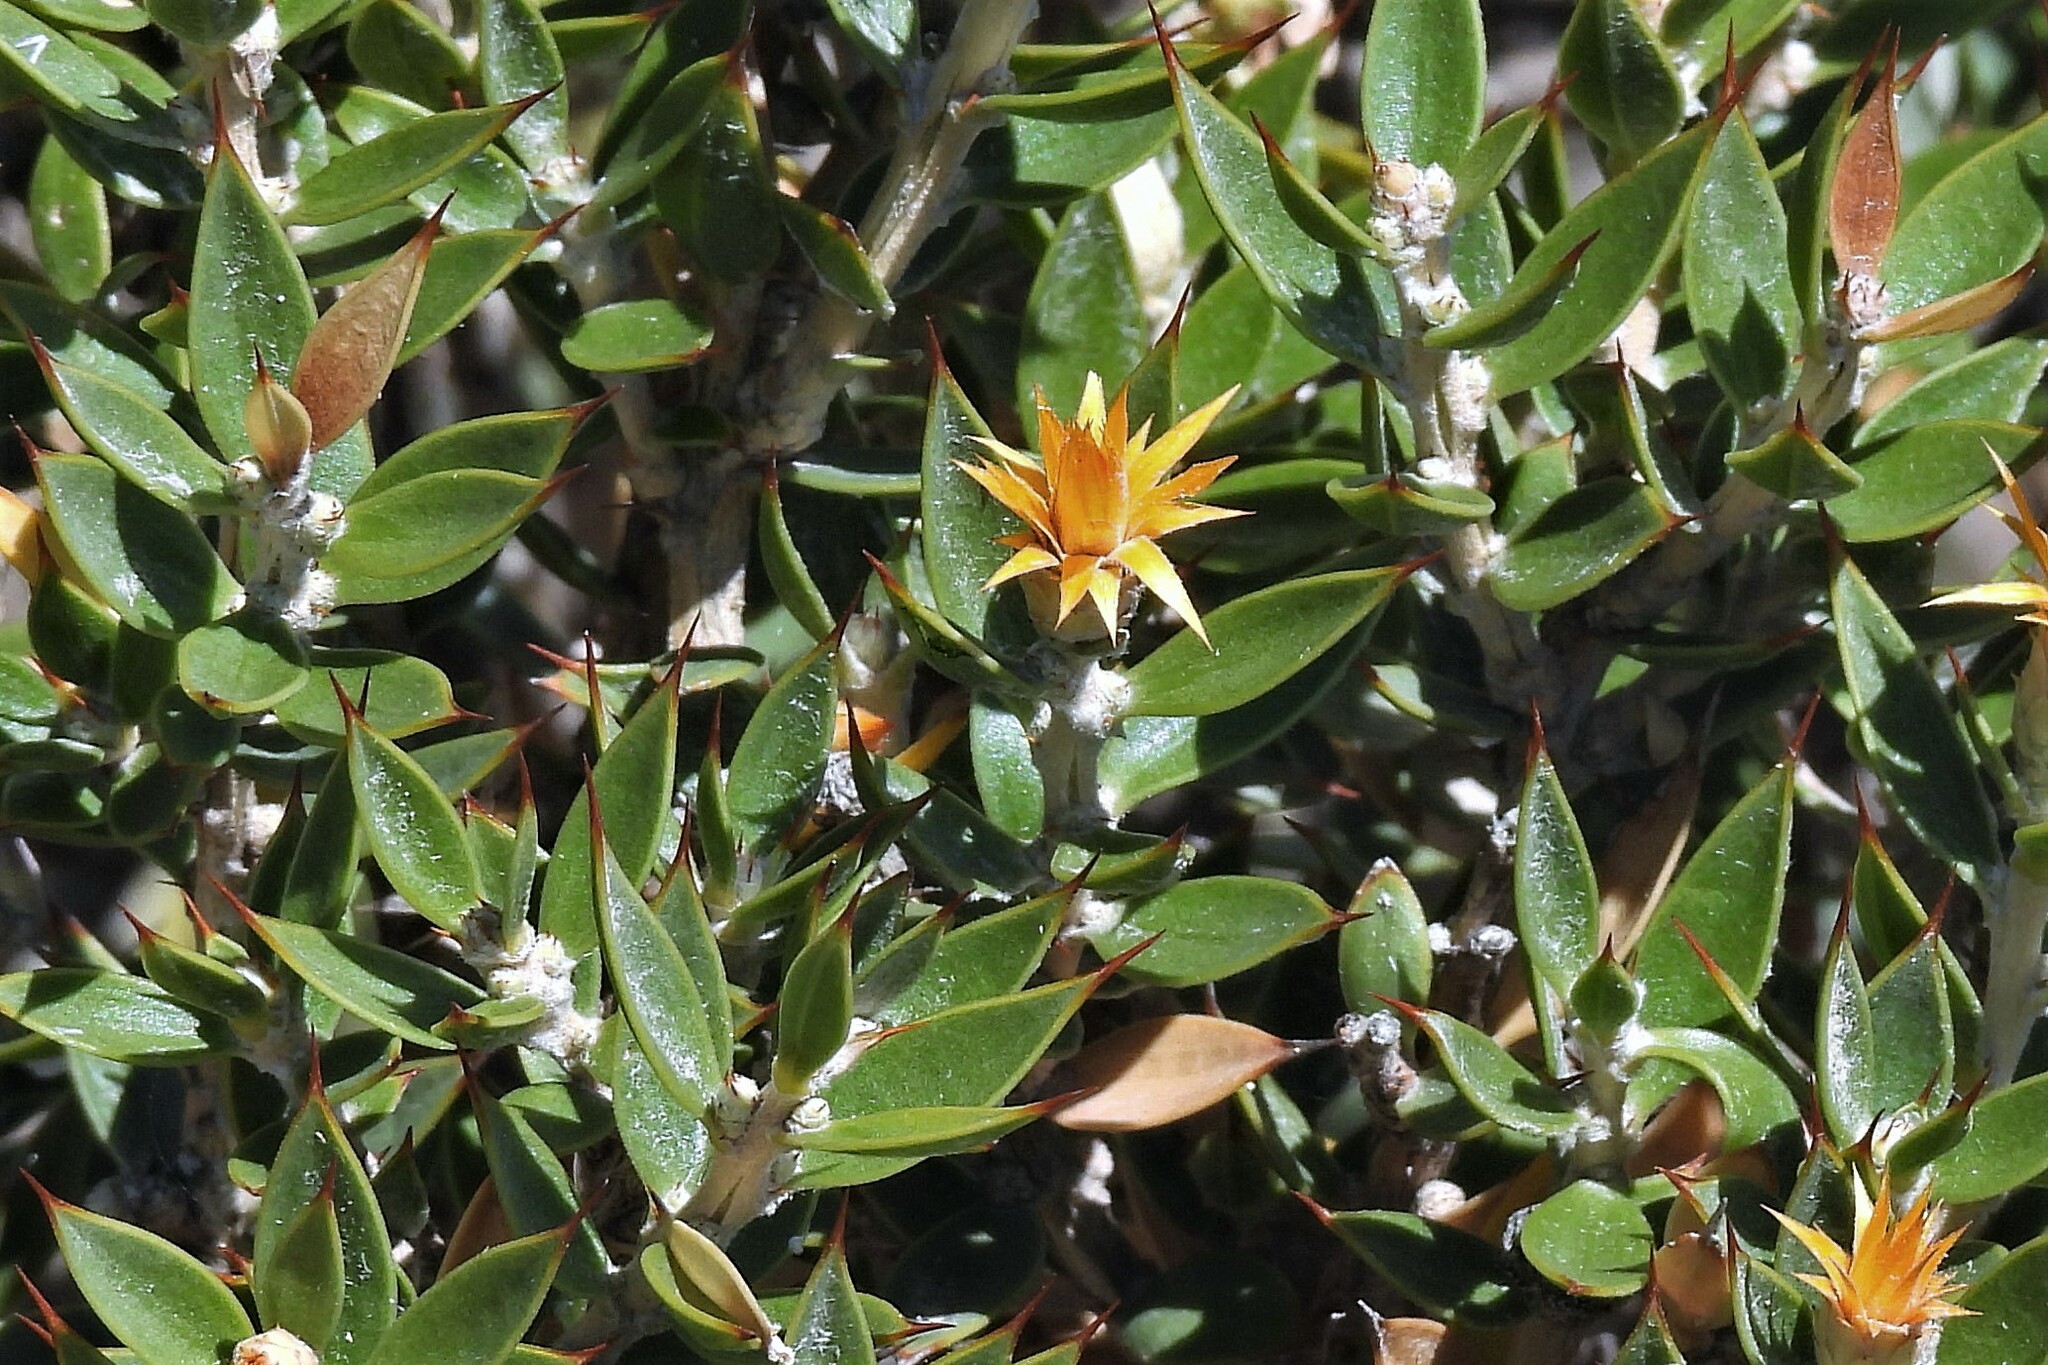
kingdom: Plantae
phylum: Tracheophyta
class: Magnoliopsida
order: Asterales
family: Asteraceae
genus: Chuquiraga
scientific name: Chuquiraga avellanedae
